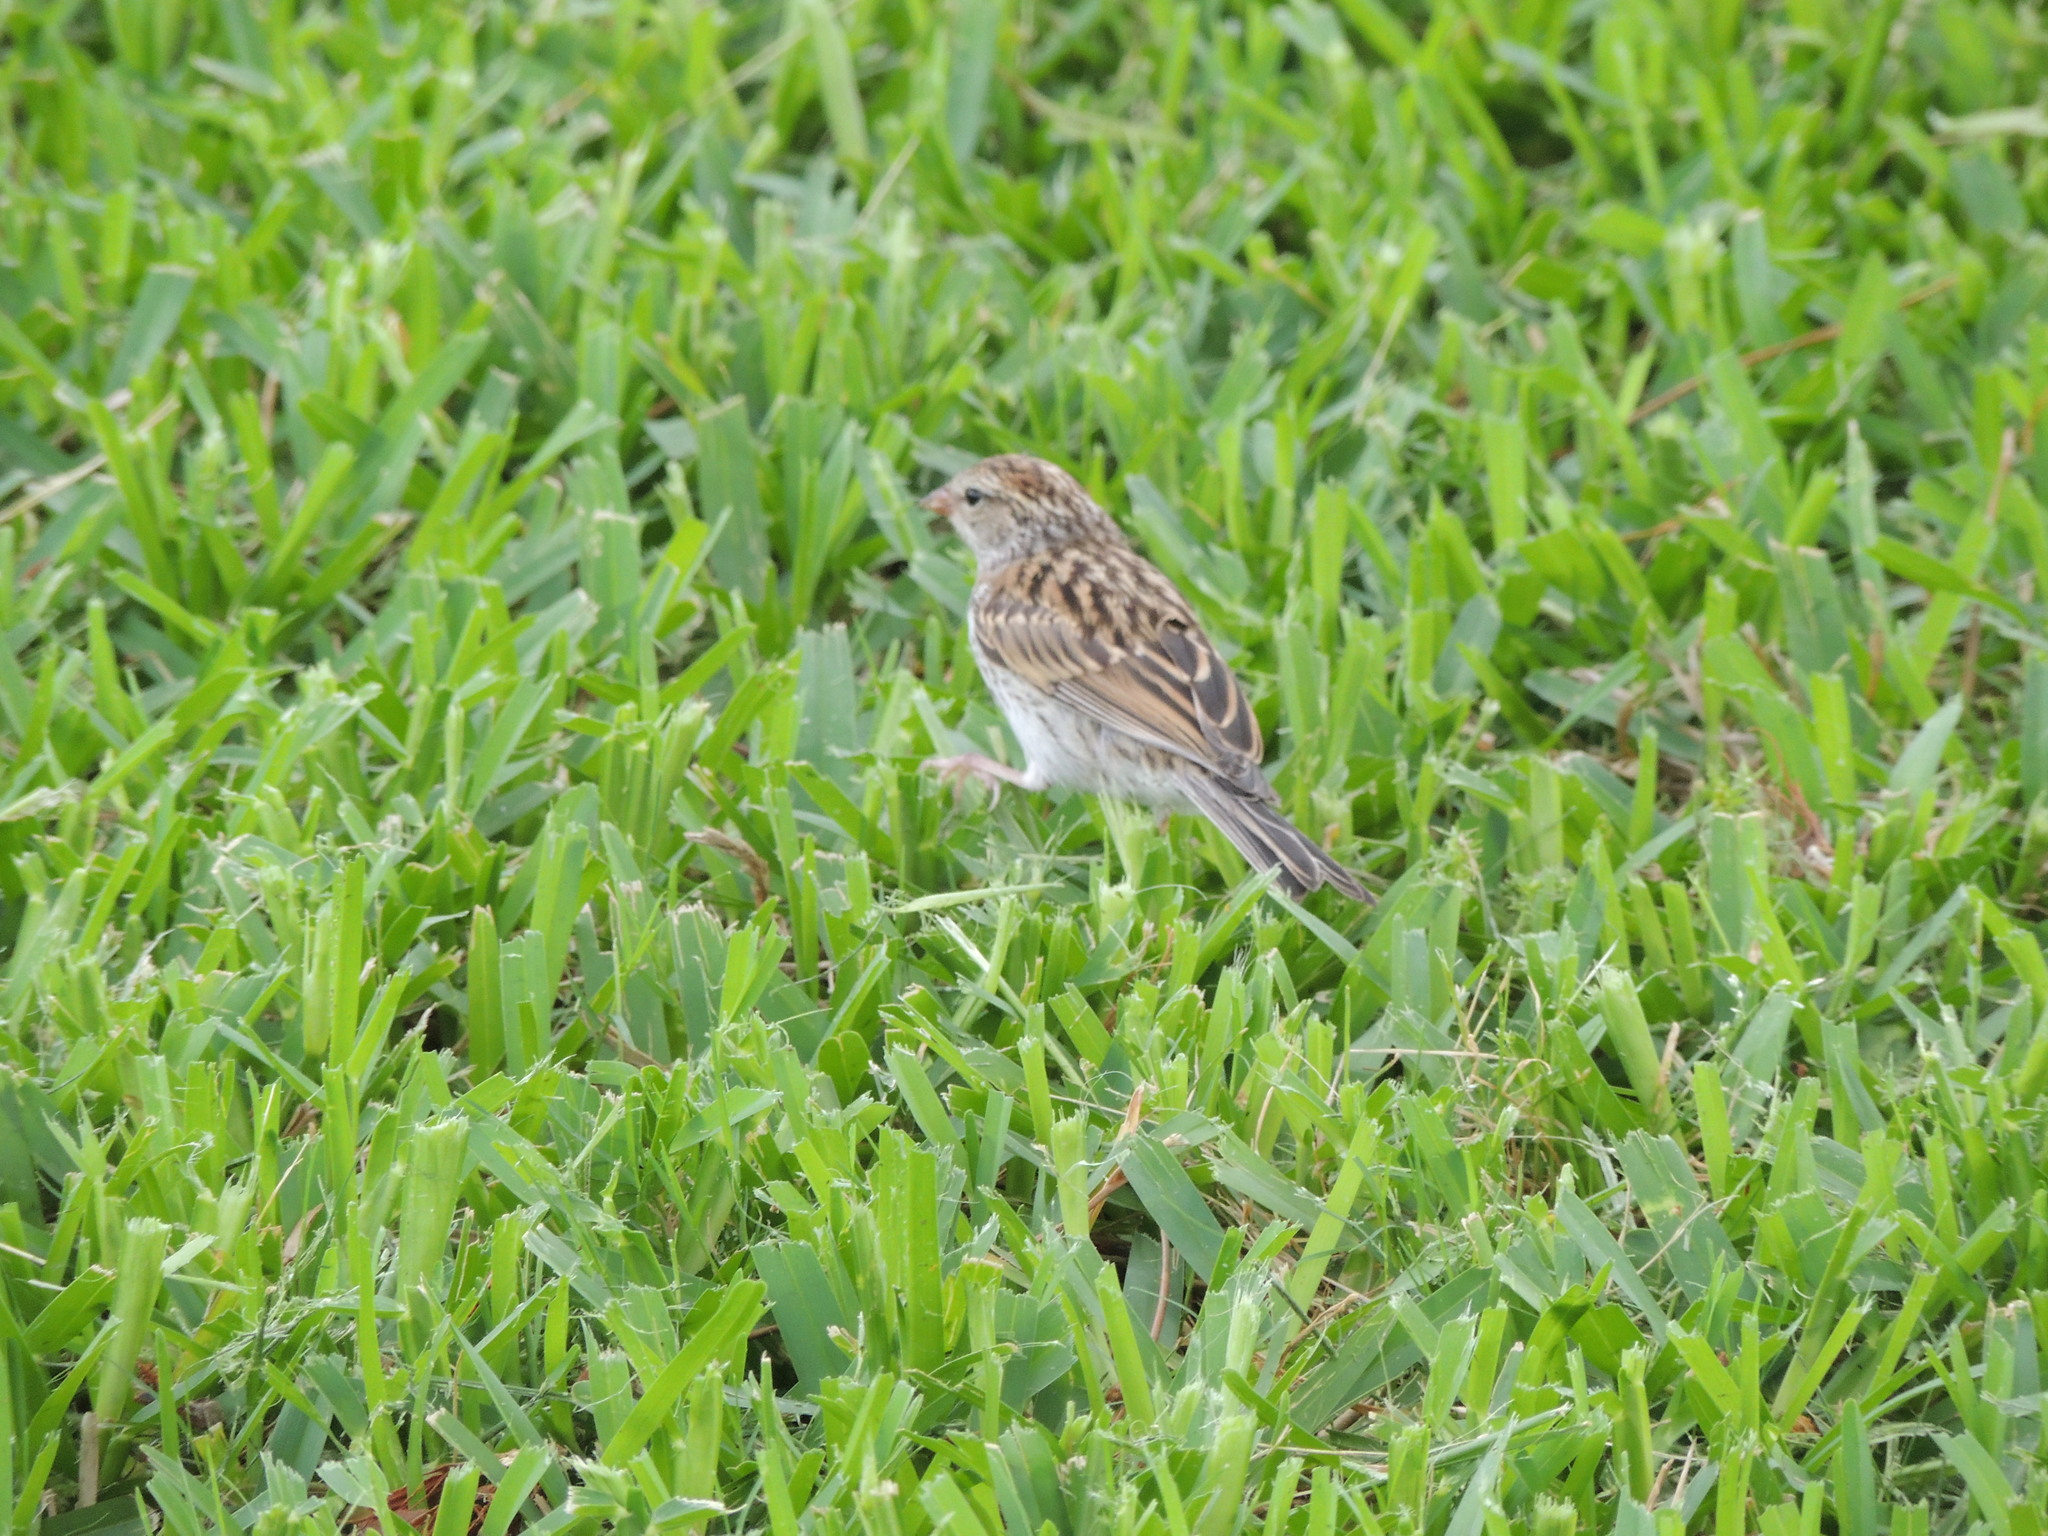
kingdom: Animalia
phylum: Chordata
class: Aves
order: Passeriformes
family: Passerellidae
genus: Spizella
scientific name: Spizella pallida
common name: Clay-colored sparrow
